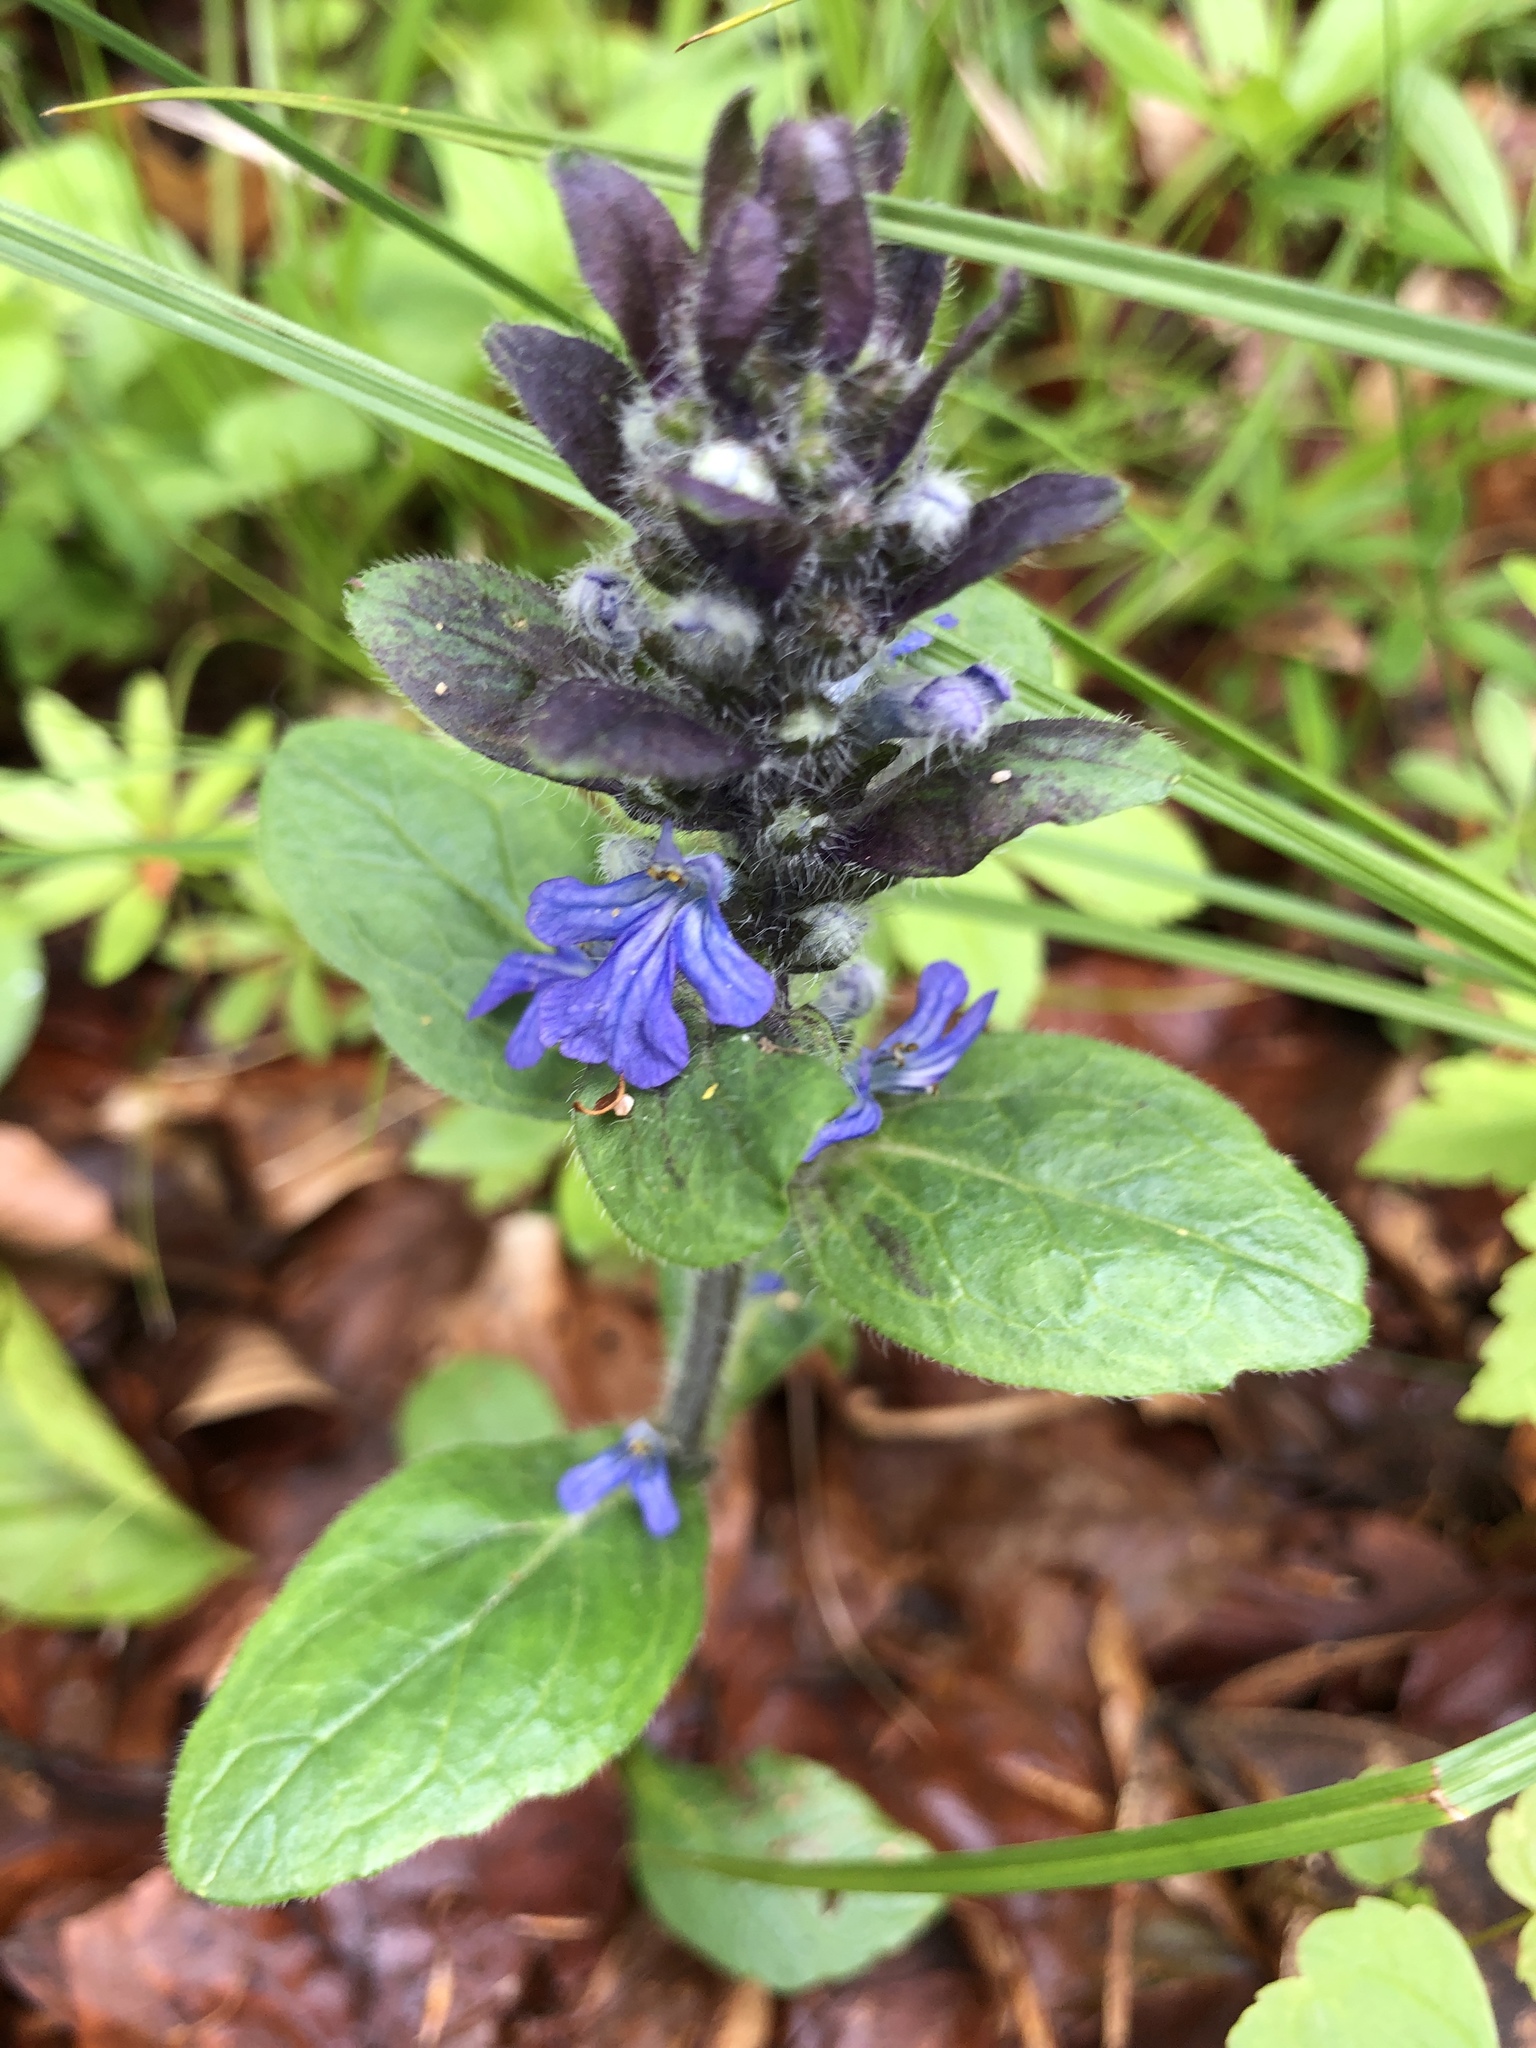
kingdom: Plantae
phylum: Tracheophyta
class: Magnoliopsida
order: Lamiales
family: Lamiaceae
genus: Ajuga
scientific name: Ajuga reptans
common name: Bugle
